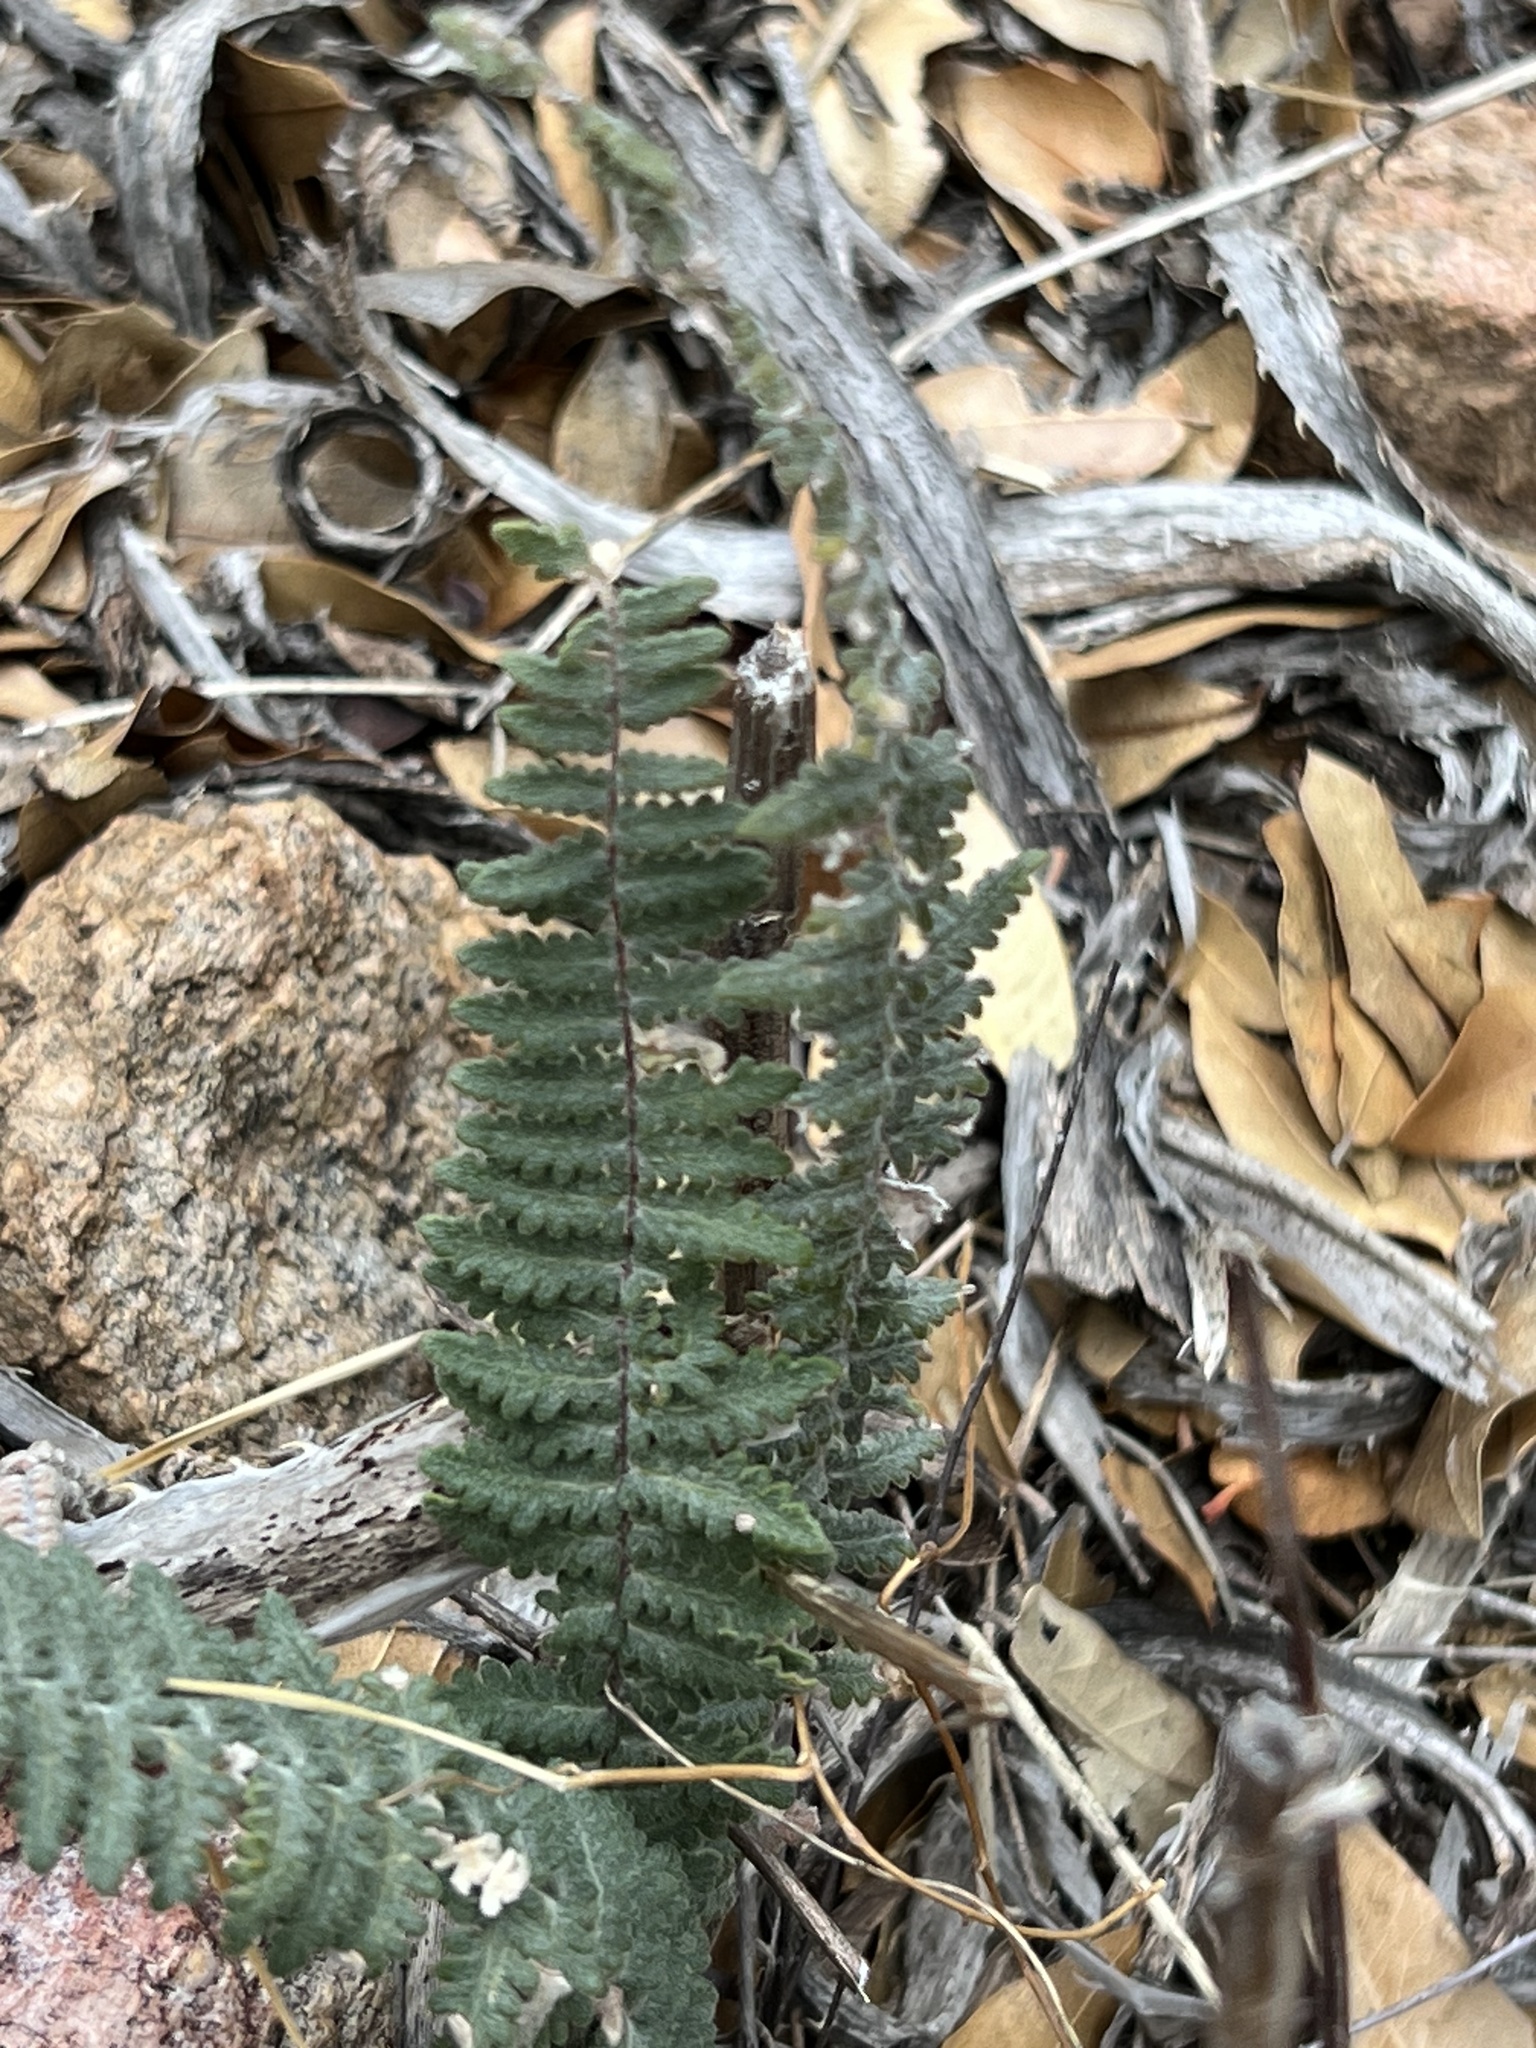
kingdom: Plantae
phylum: Tracheophyta
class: Polypodiopsida
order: Polypodiales
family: Pteridaceae
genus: Myriopteris
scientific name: Myriopteris aurea
